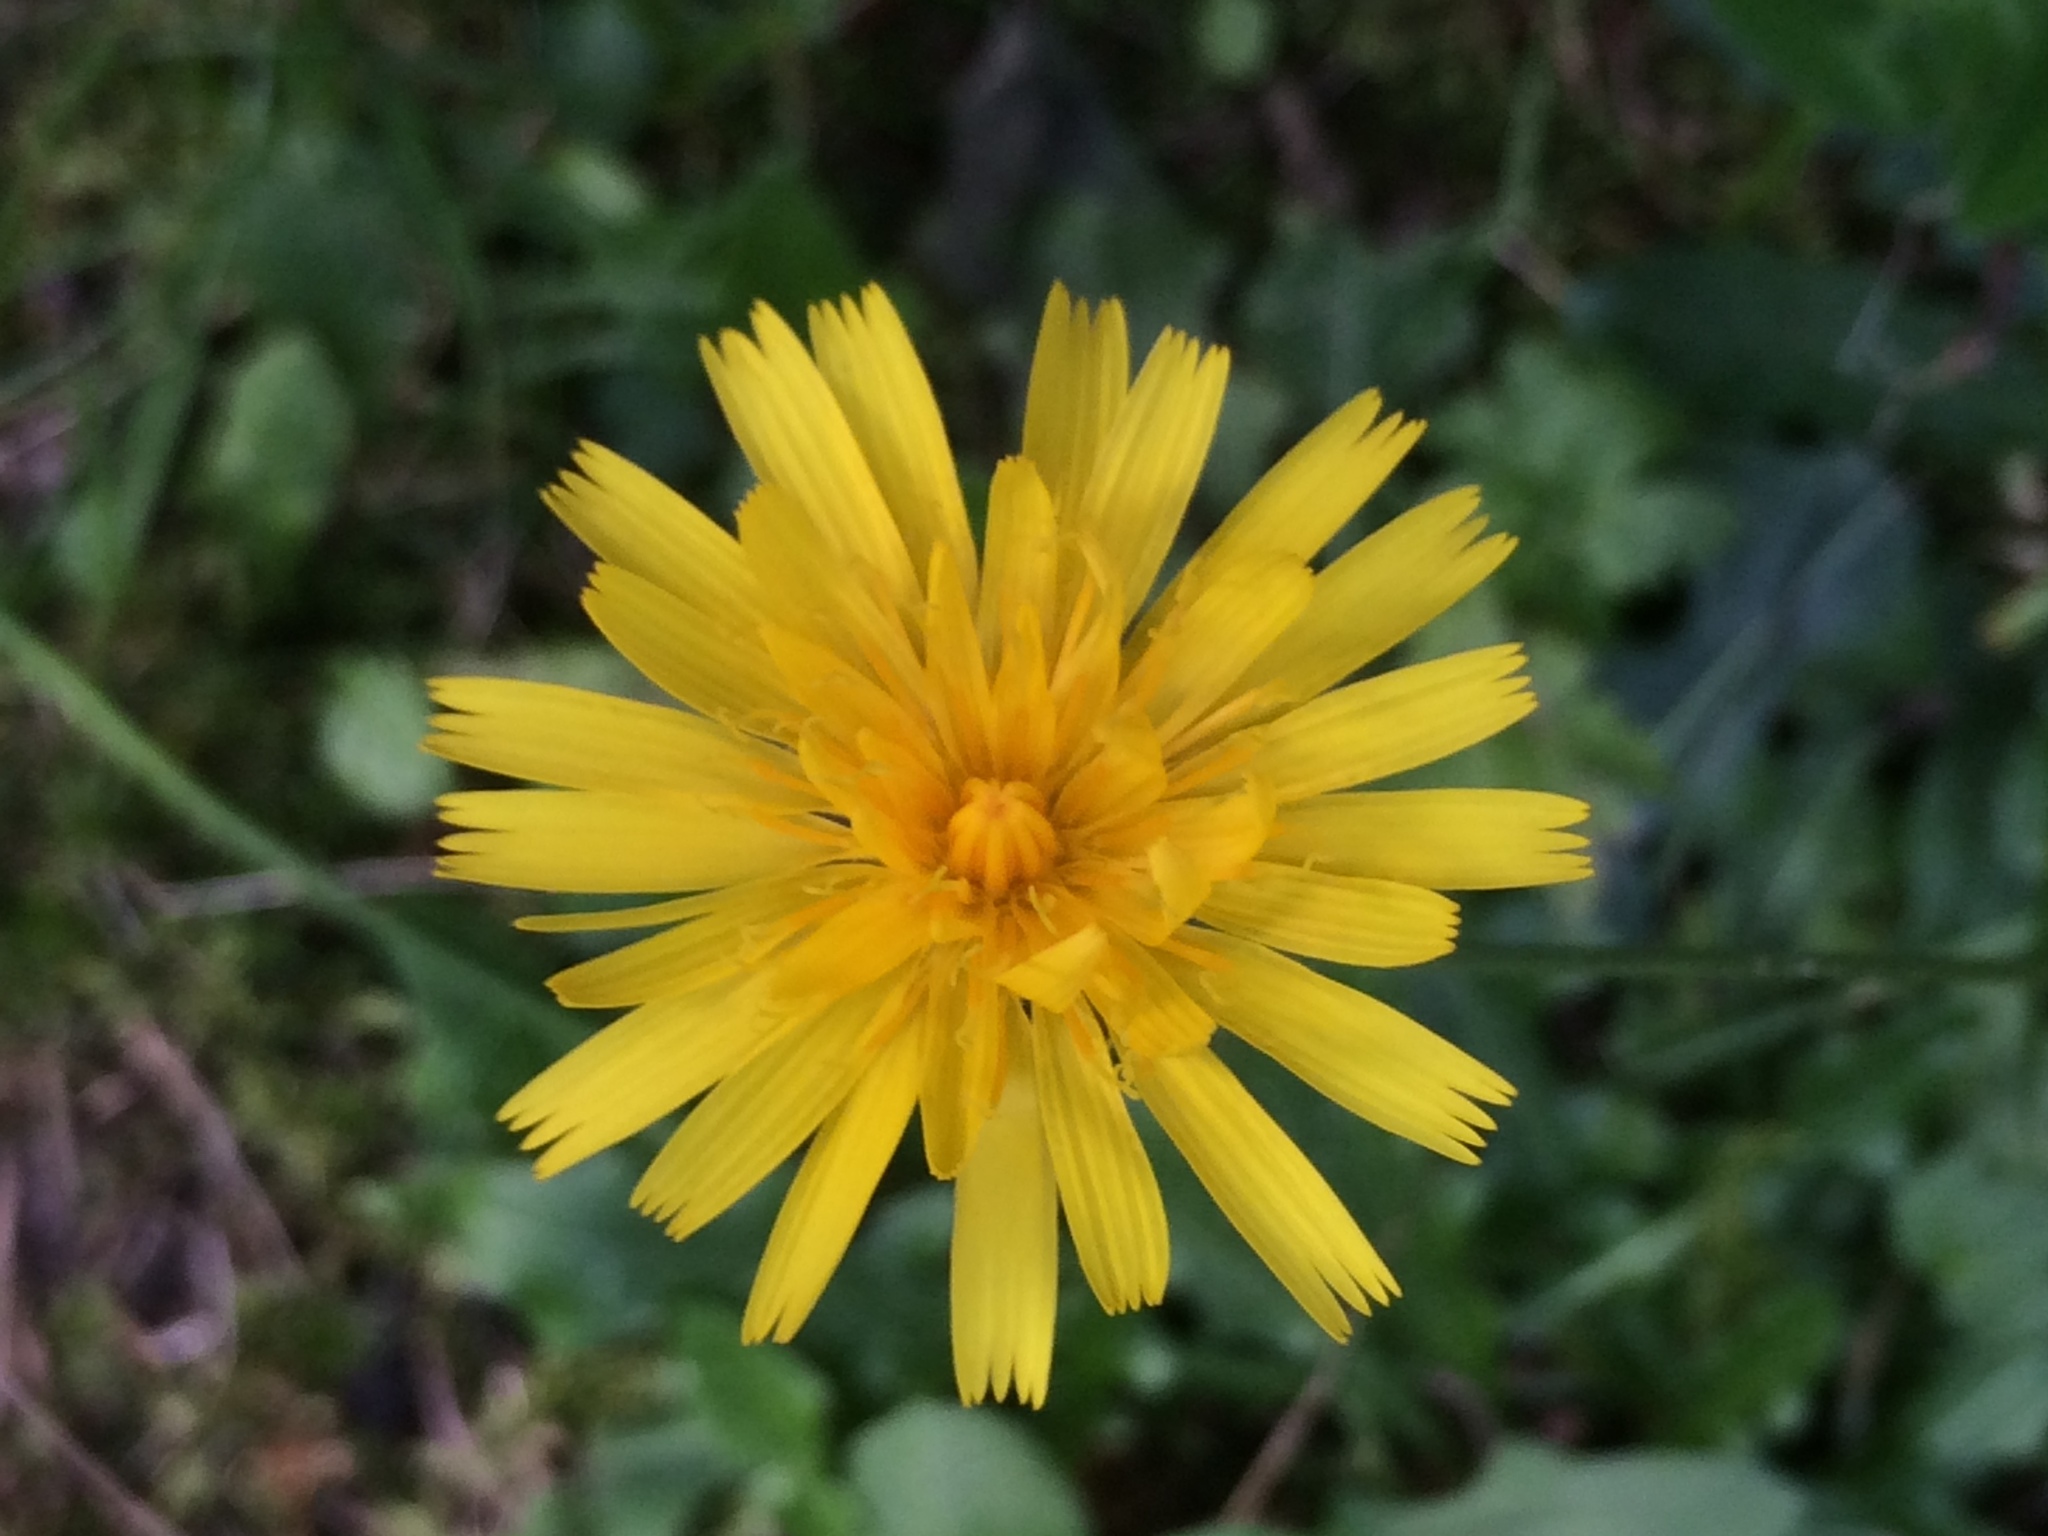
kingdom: Plantae
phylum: Tracheophyta
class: Magnoliopsida
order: Asterales
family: Asteraceae
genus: Scorzoneroides
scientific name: Scorzoneroides helvetica
